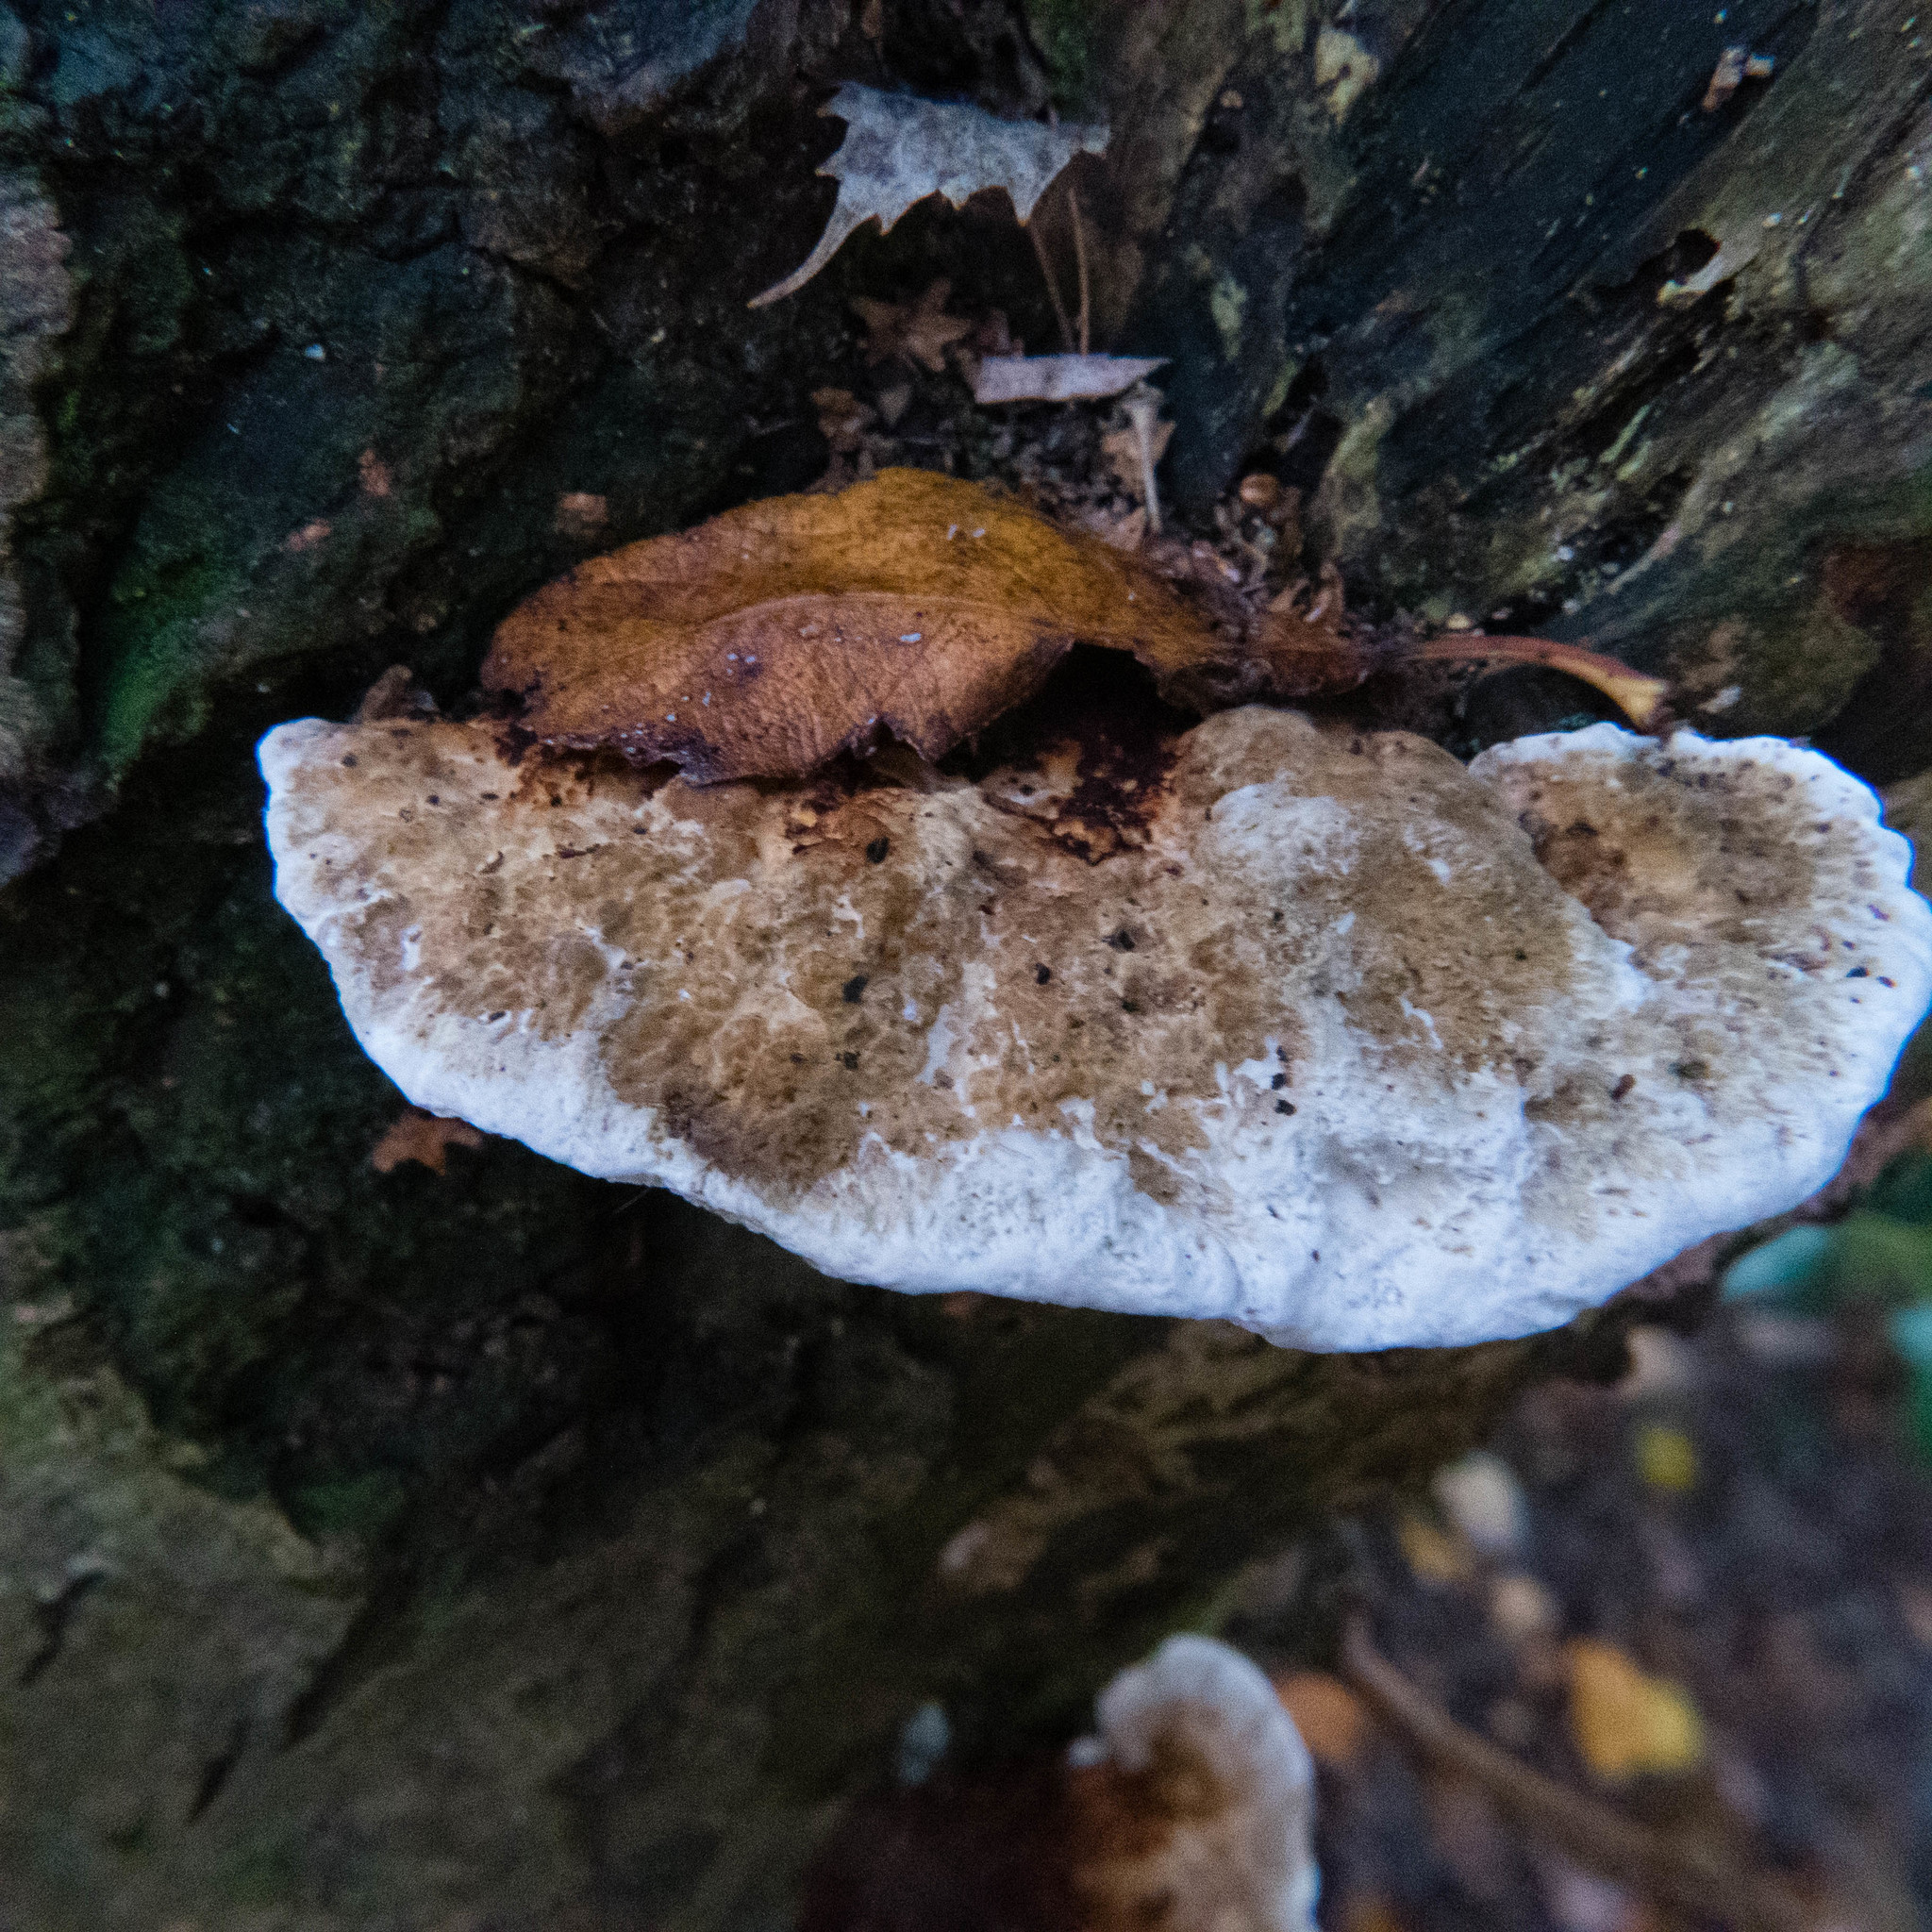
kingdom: Fungi
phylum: Basidiomycota
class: Agaricomycetes
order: Polyporales
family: Polyporaceae
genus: Daedaleopsis
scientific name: Daedaleopsis confragosa
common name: Blushing bracket
